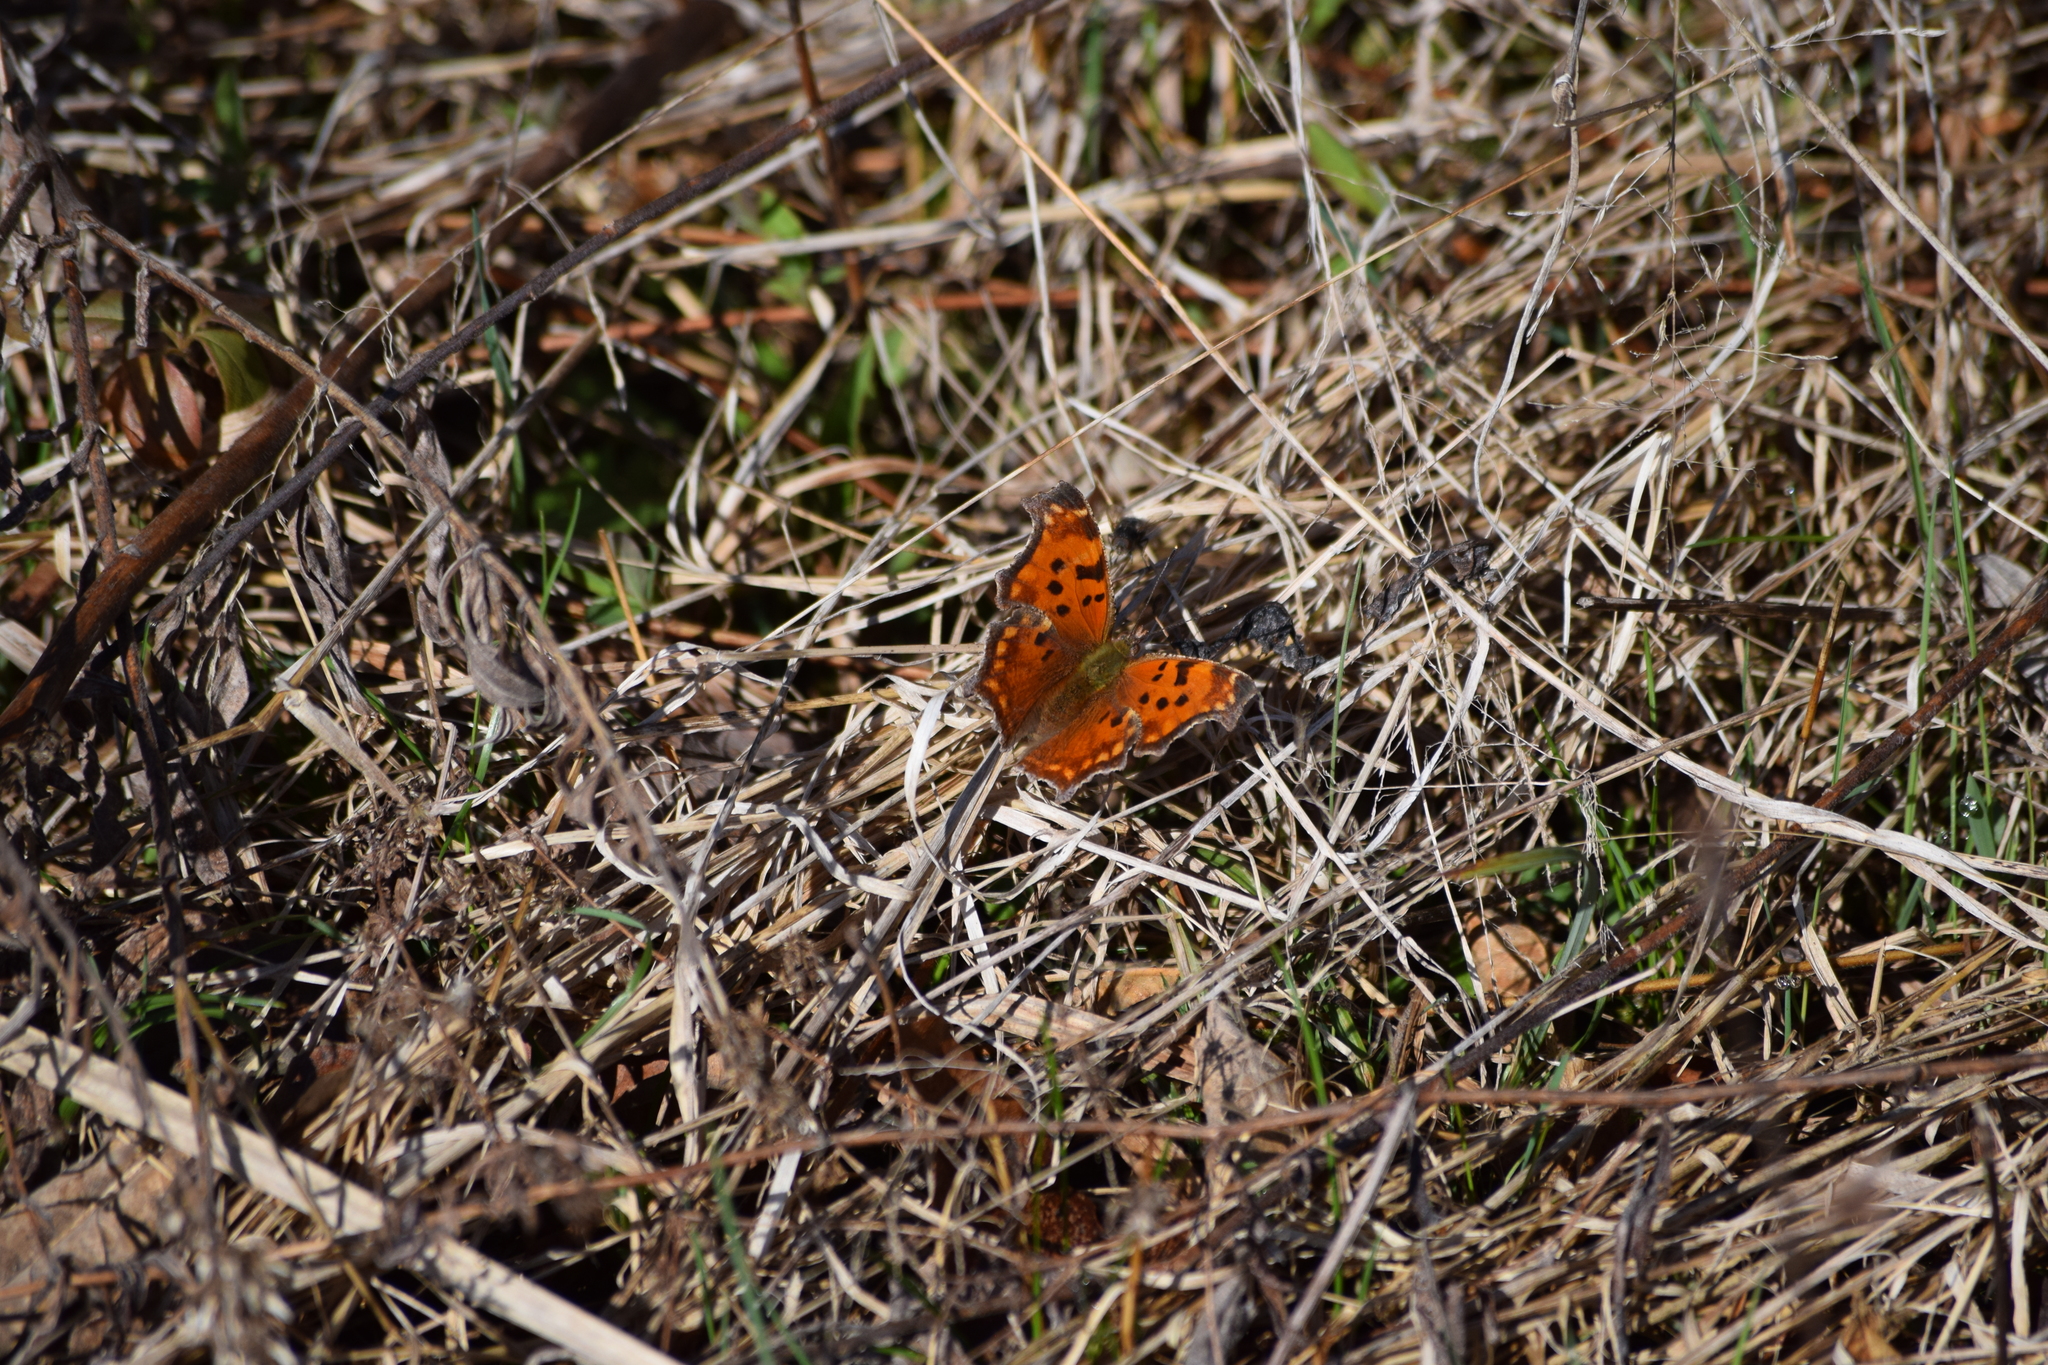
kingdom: Animalia
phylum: Arthropoda
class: Insecta
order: Lepidoptera
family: Nymphalidae
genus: Polygonia
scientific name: Polygonia comma
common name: Eastern comma
